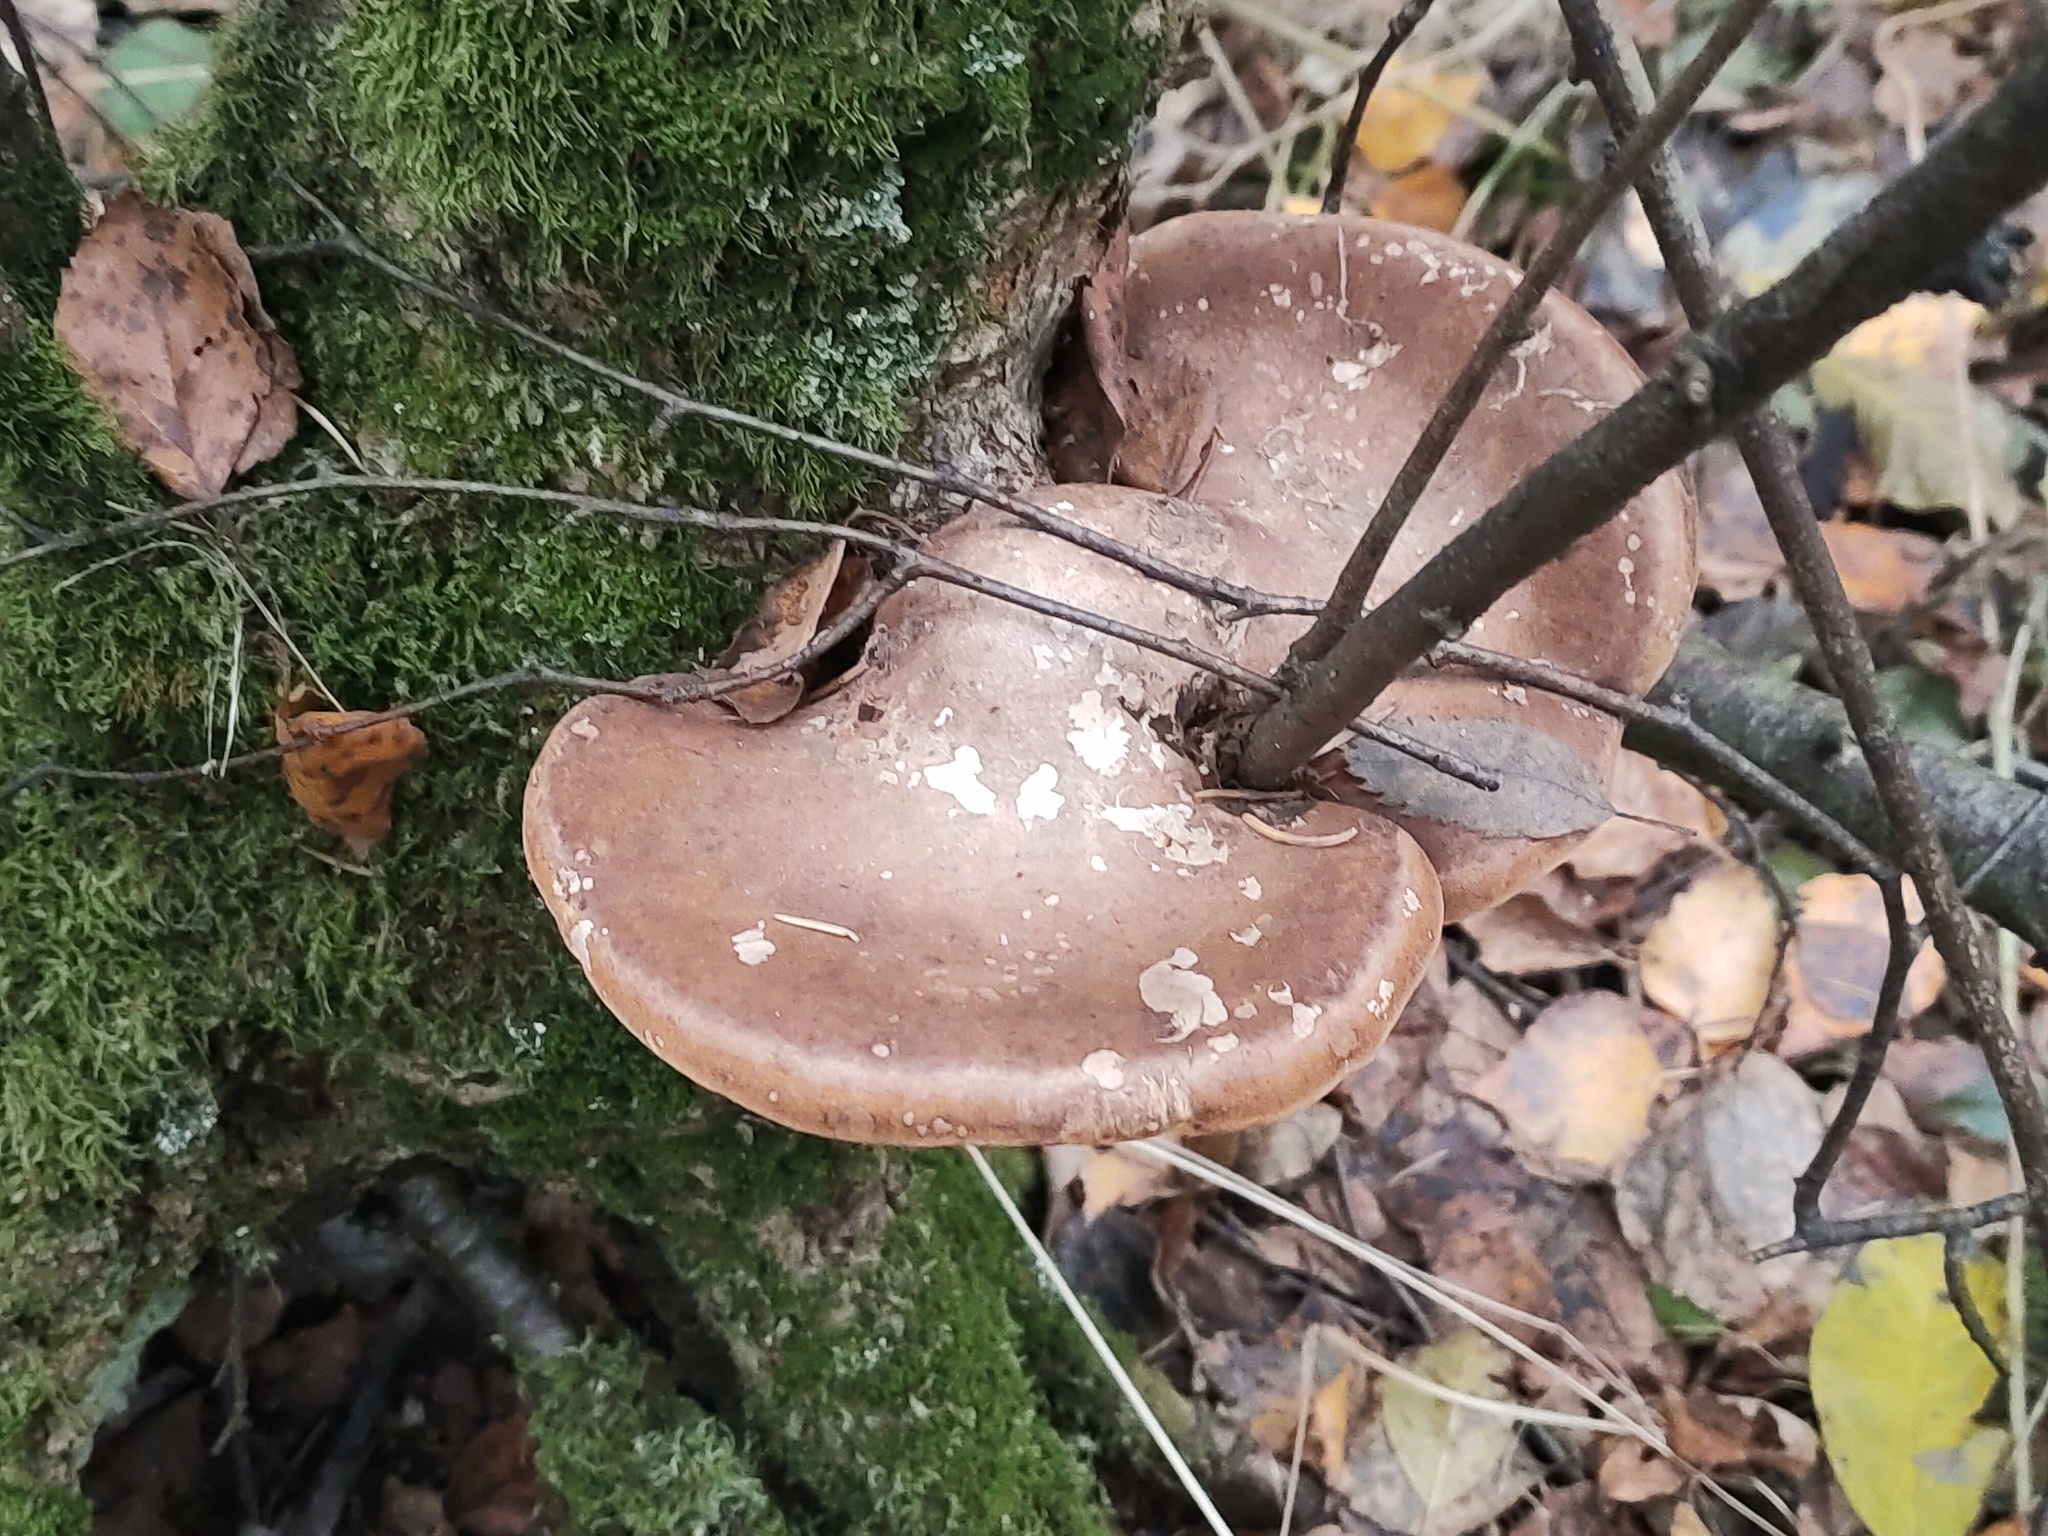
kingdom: Fungi
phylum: Basidiomycota
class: Agaricomycetes
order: Polyporales
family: Fomitopsidaceae
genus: Fomitopsis
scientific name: Fomitopsis betulina
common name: Birch polypore
